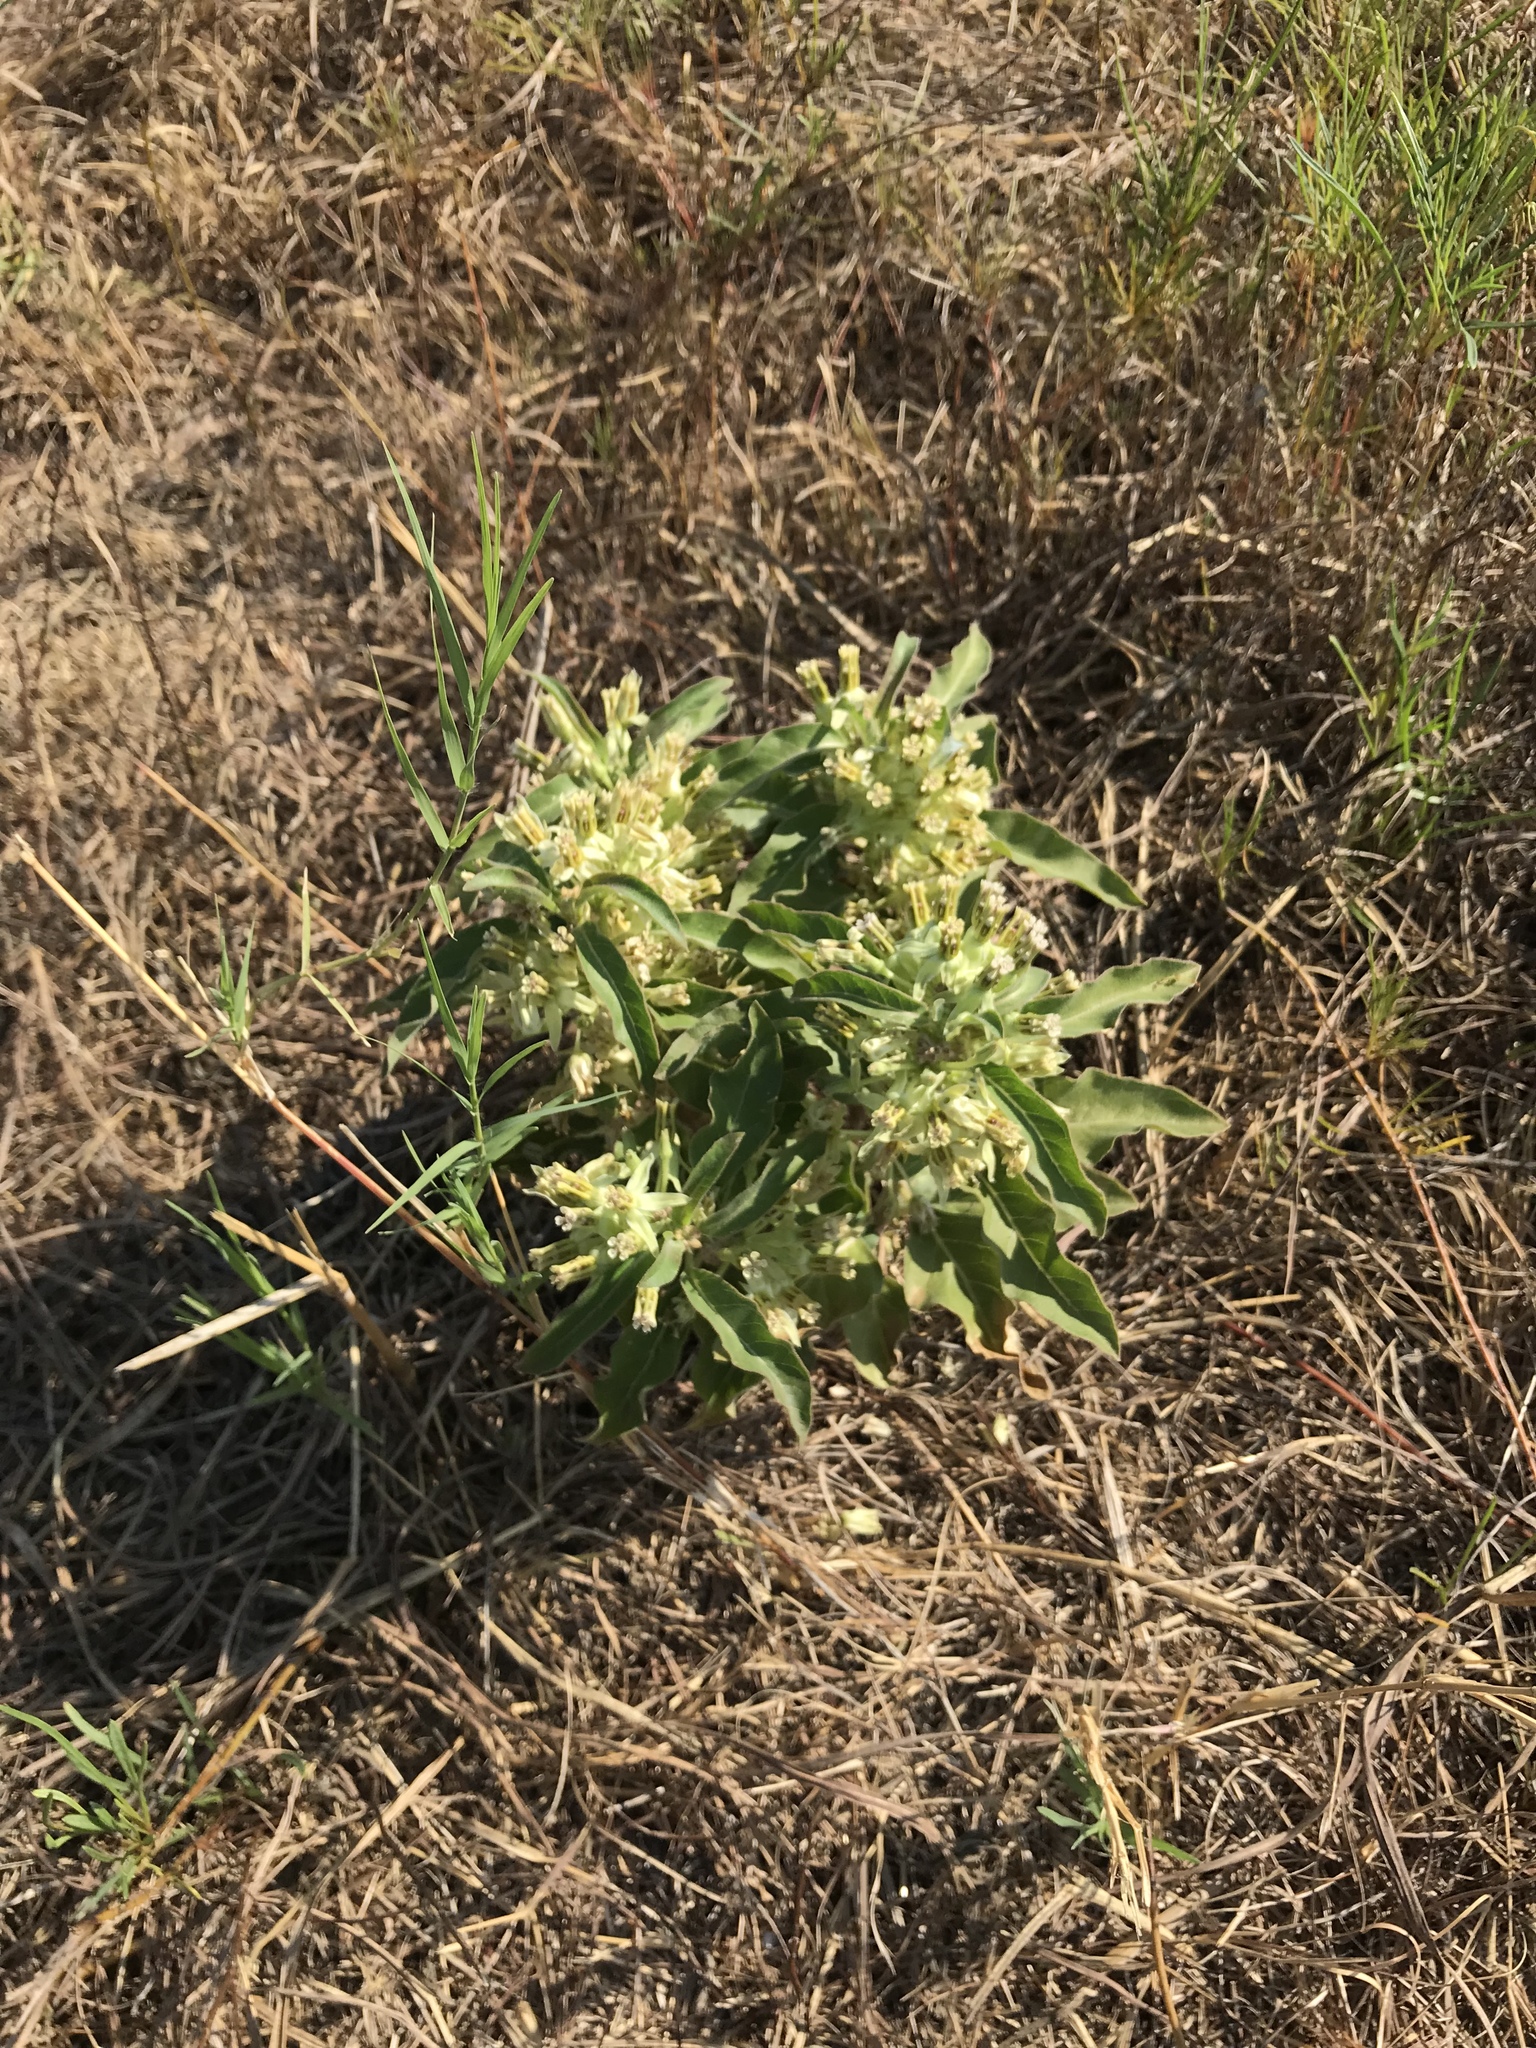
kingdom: Plantae
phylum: Tracheophyta
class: Magnoliopsida
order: Gentianales
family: Apocynaceae
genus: Asclepias
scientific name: Asclepias oenotheroides
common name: Zizotes milkweed
